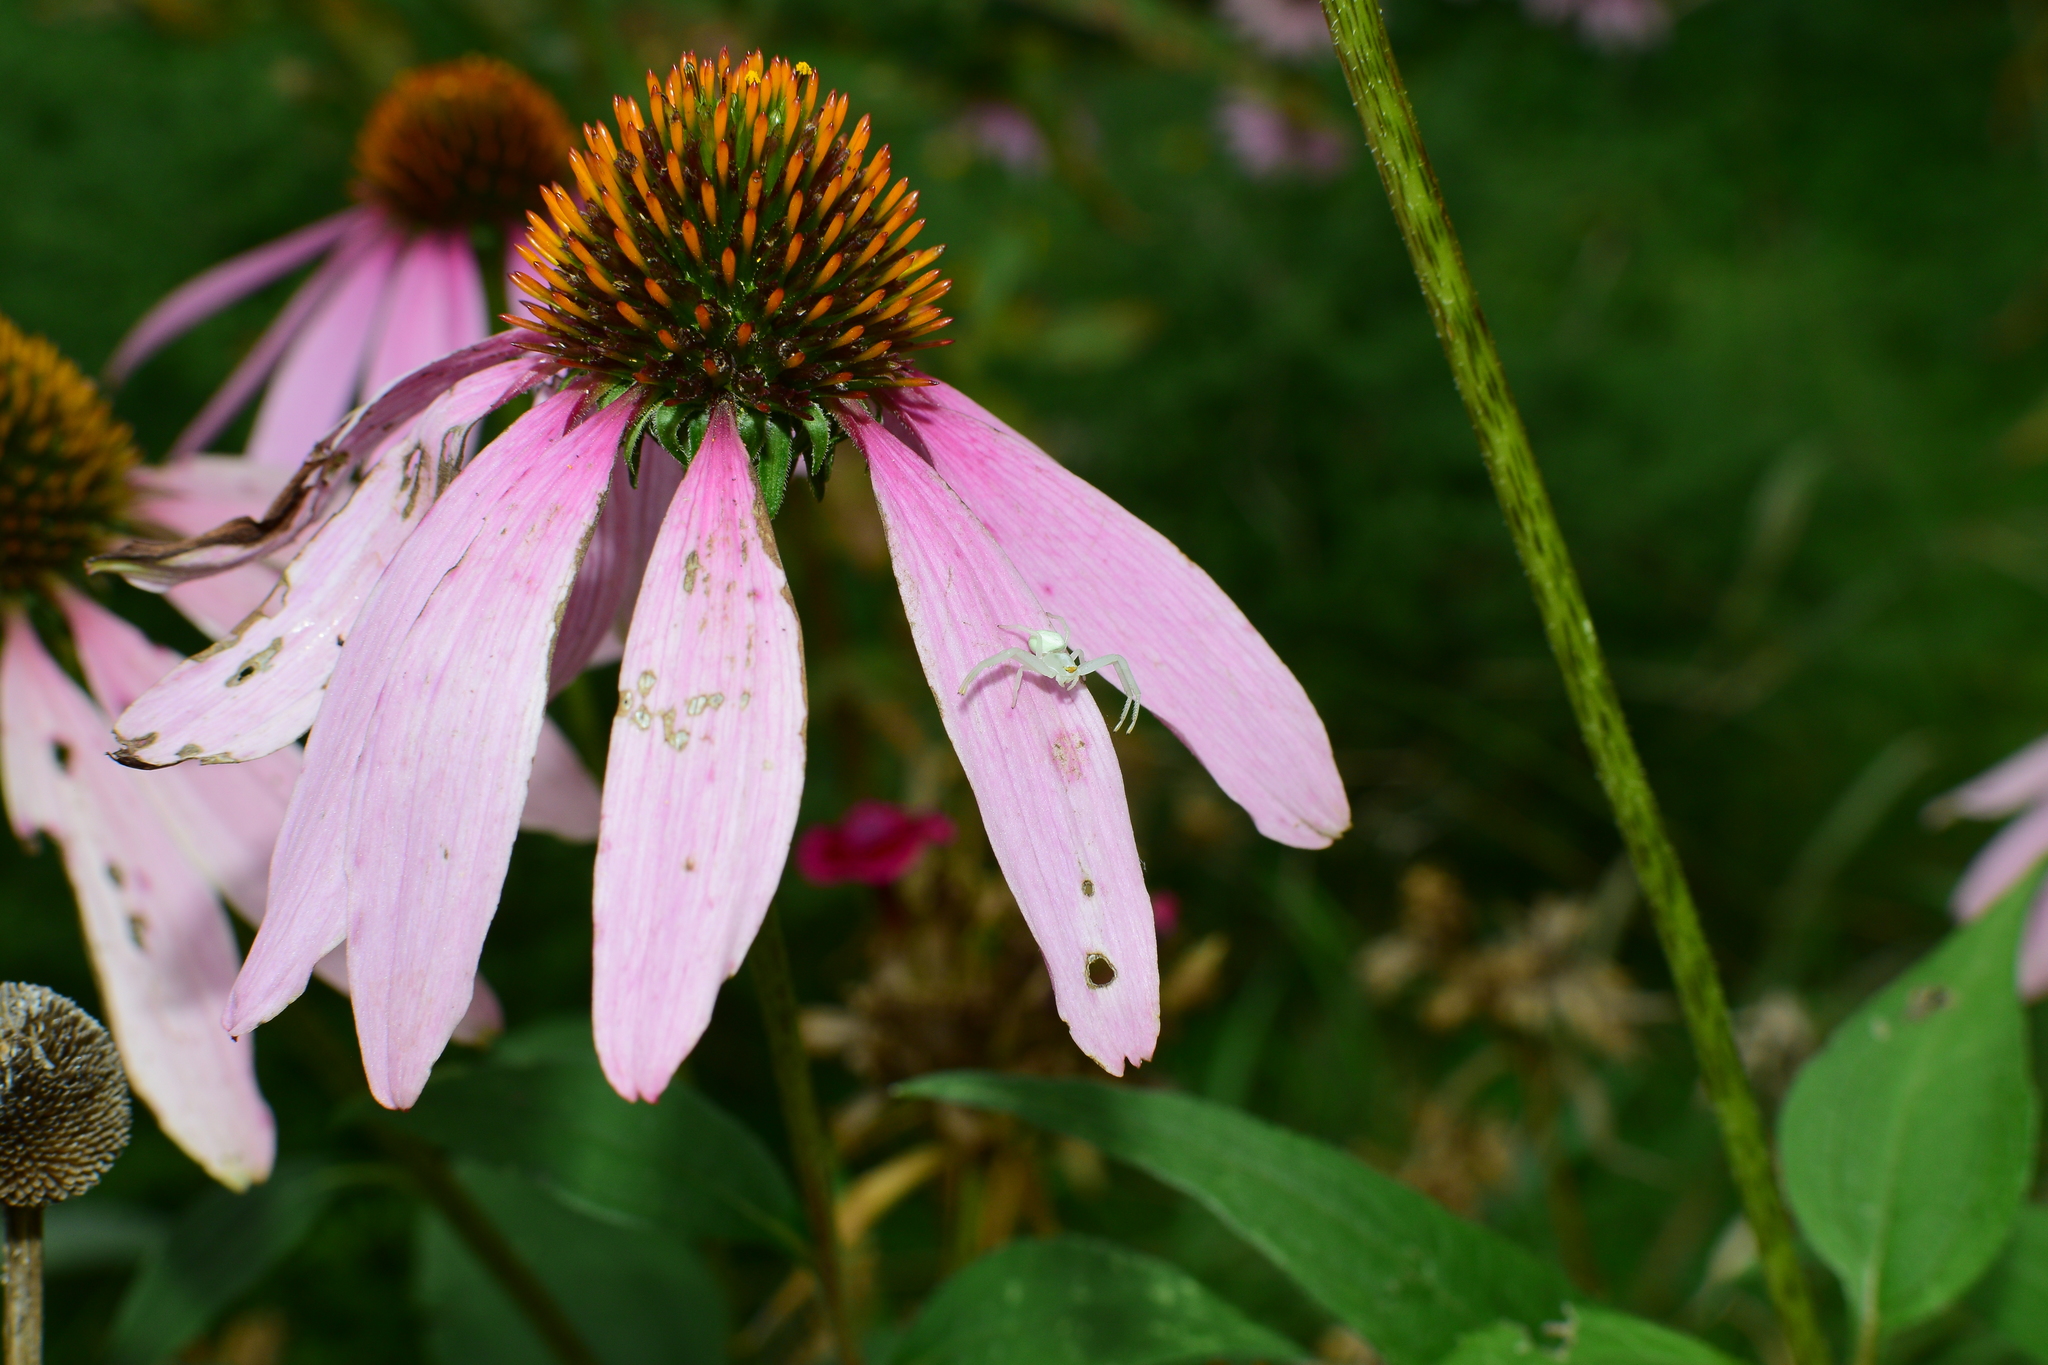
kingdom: Animalia
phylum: Arthropoda
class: Arachnida
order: Araneae
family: Thomisidae
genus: Misumena
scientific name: Misumena vatia
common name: Goldenrod crab spider
